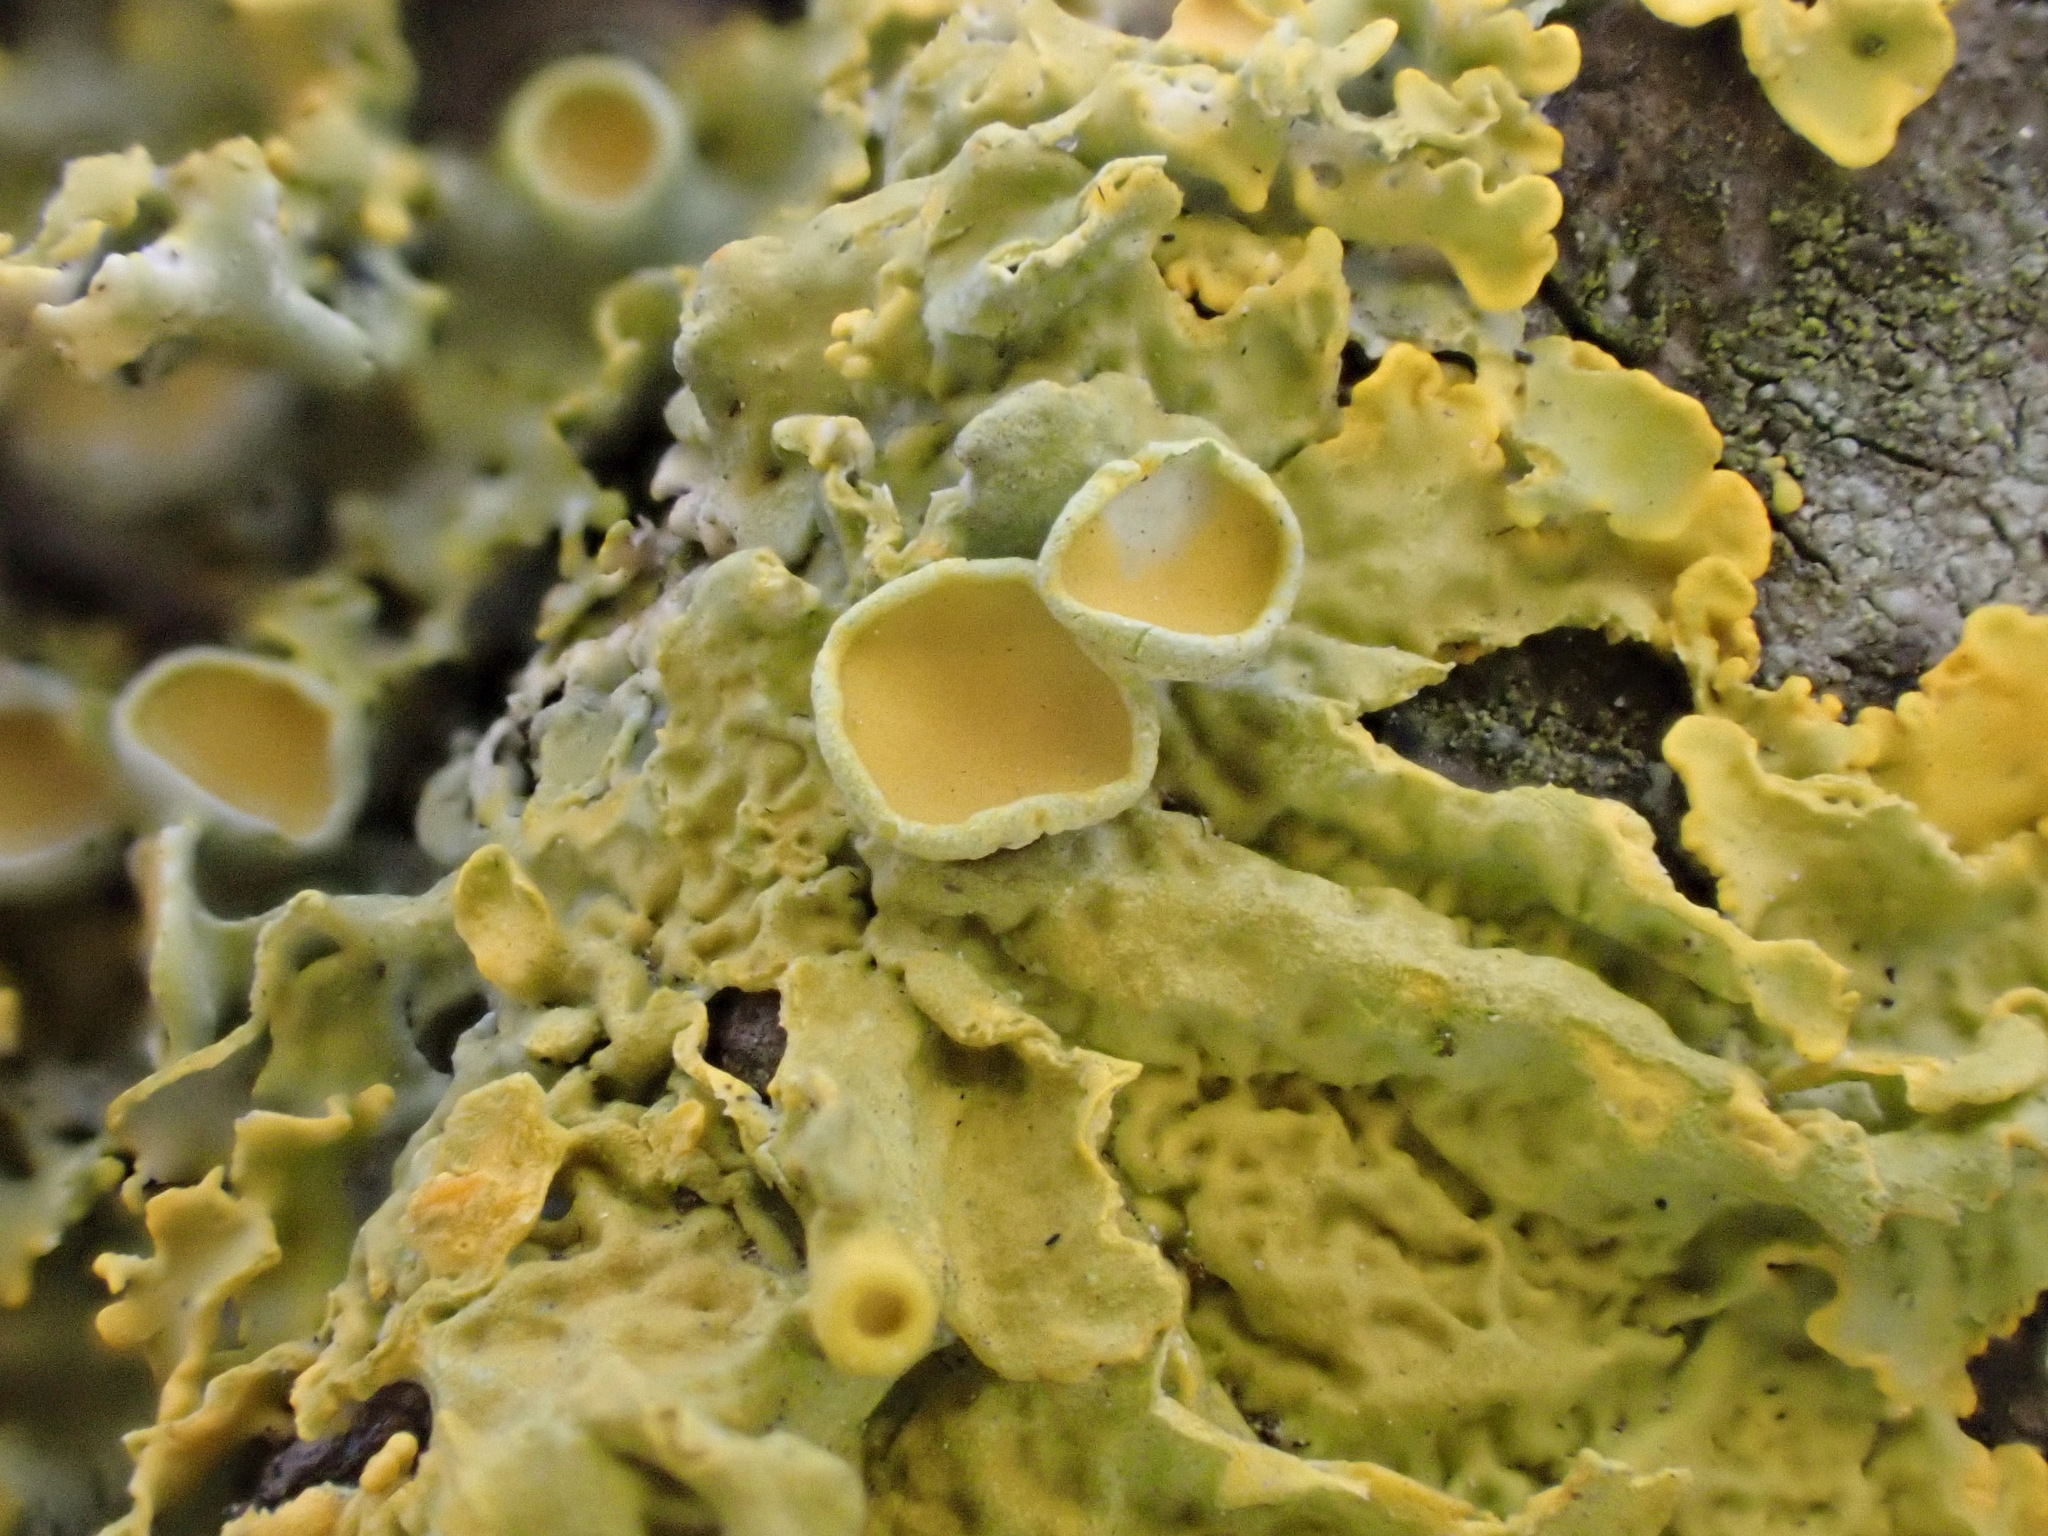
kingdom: Fungi
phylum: Ascomycota
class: Lecanoromycetes
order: Teloschistales
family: Teloschistaceae
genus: Xanthoria
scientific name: Xanthoria parietina
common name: Common orange lichen
